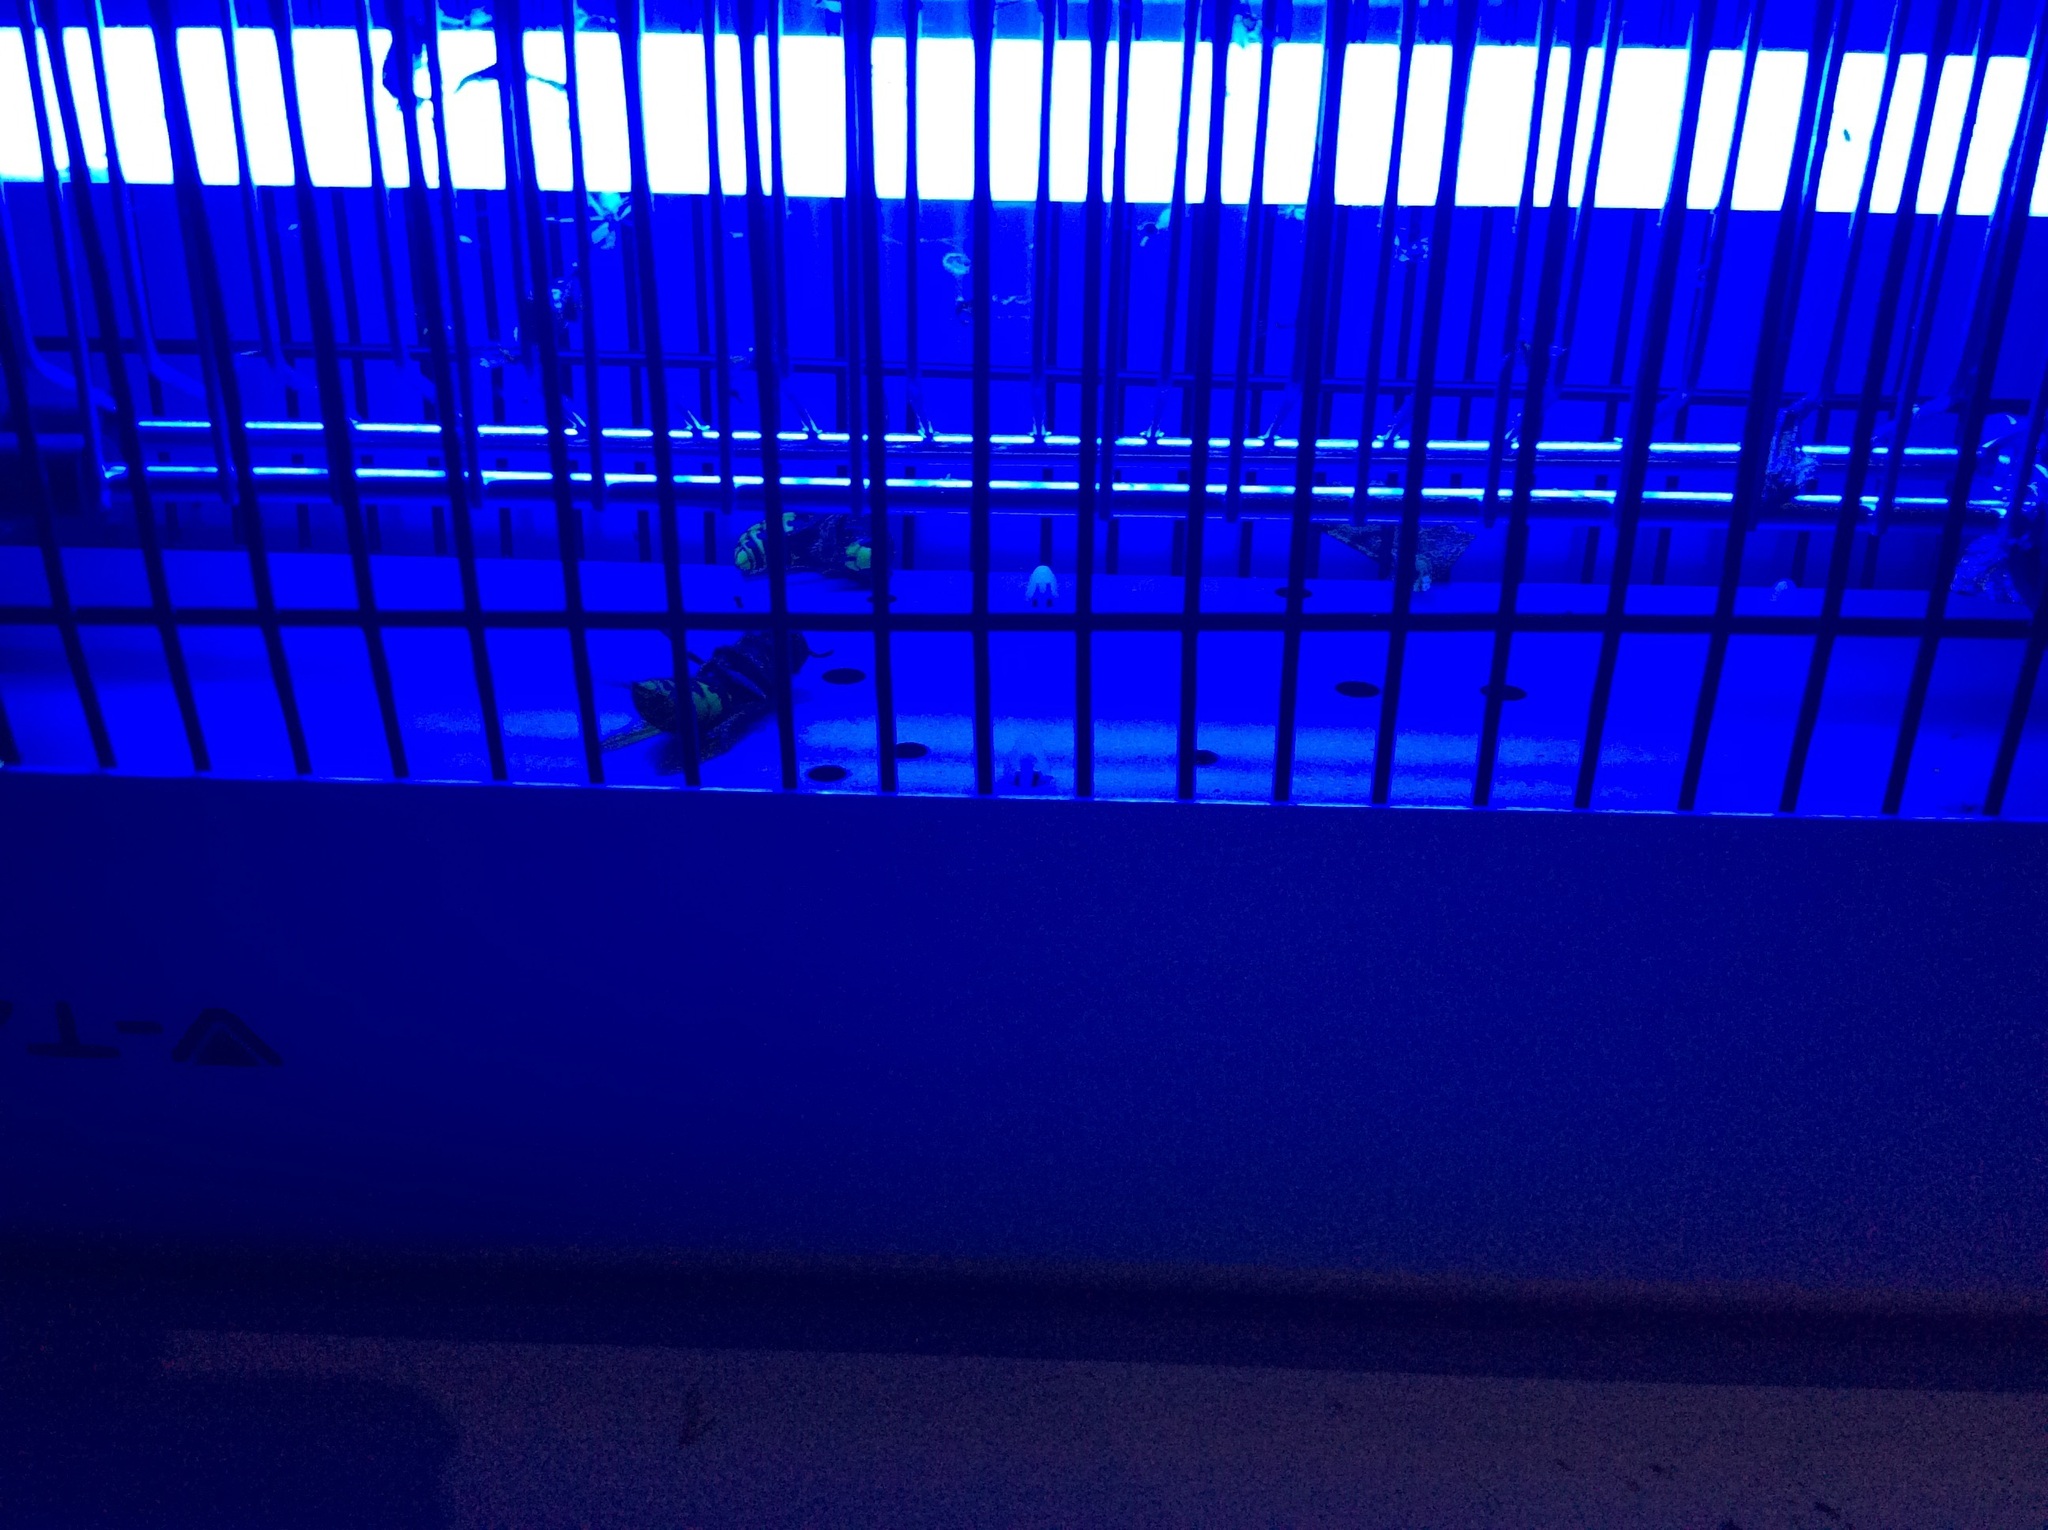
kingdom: Animalia
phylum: Arthropoda
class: Insecta
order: Hymenoptera
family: Vespidae
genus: Vespa
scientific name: Vespa crabro
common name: Hornet
